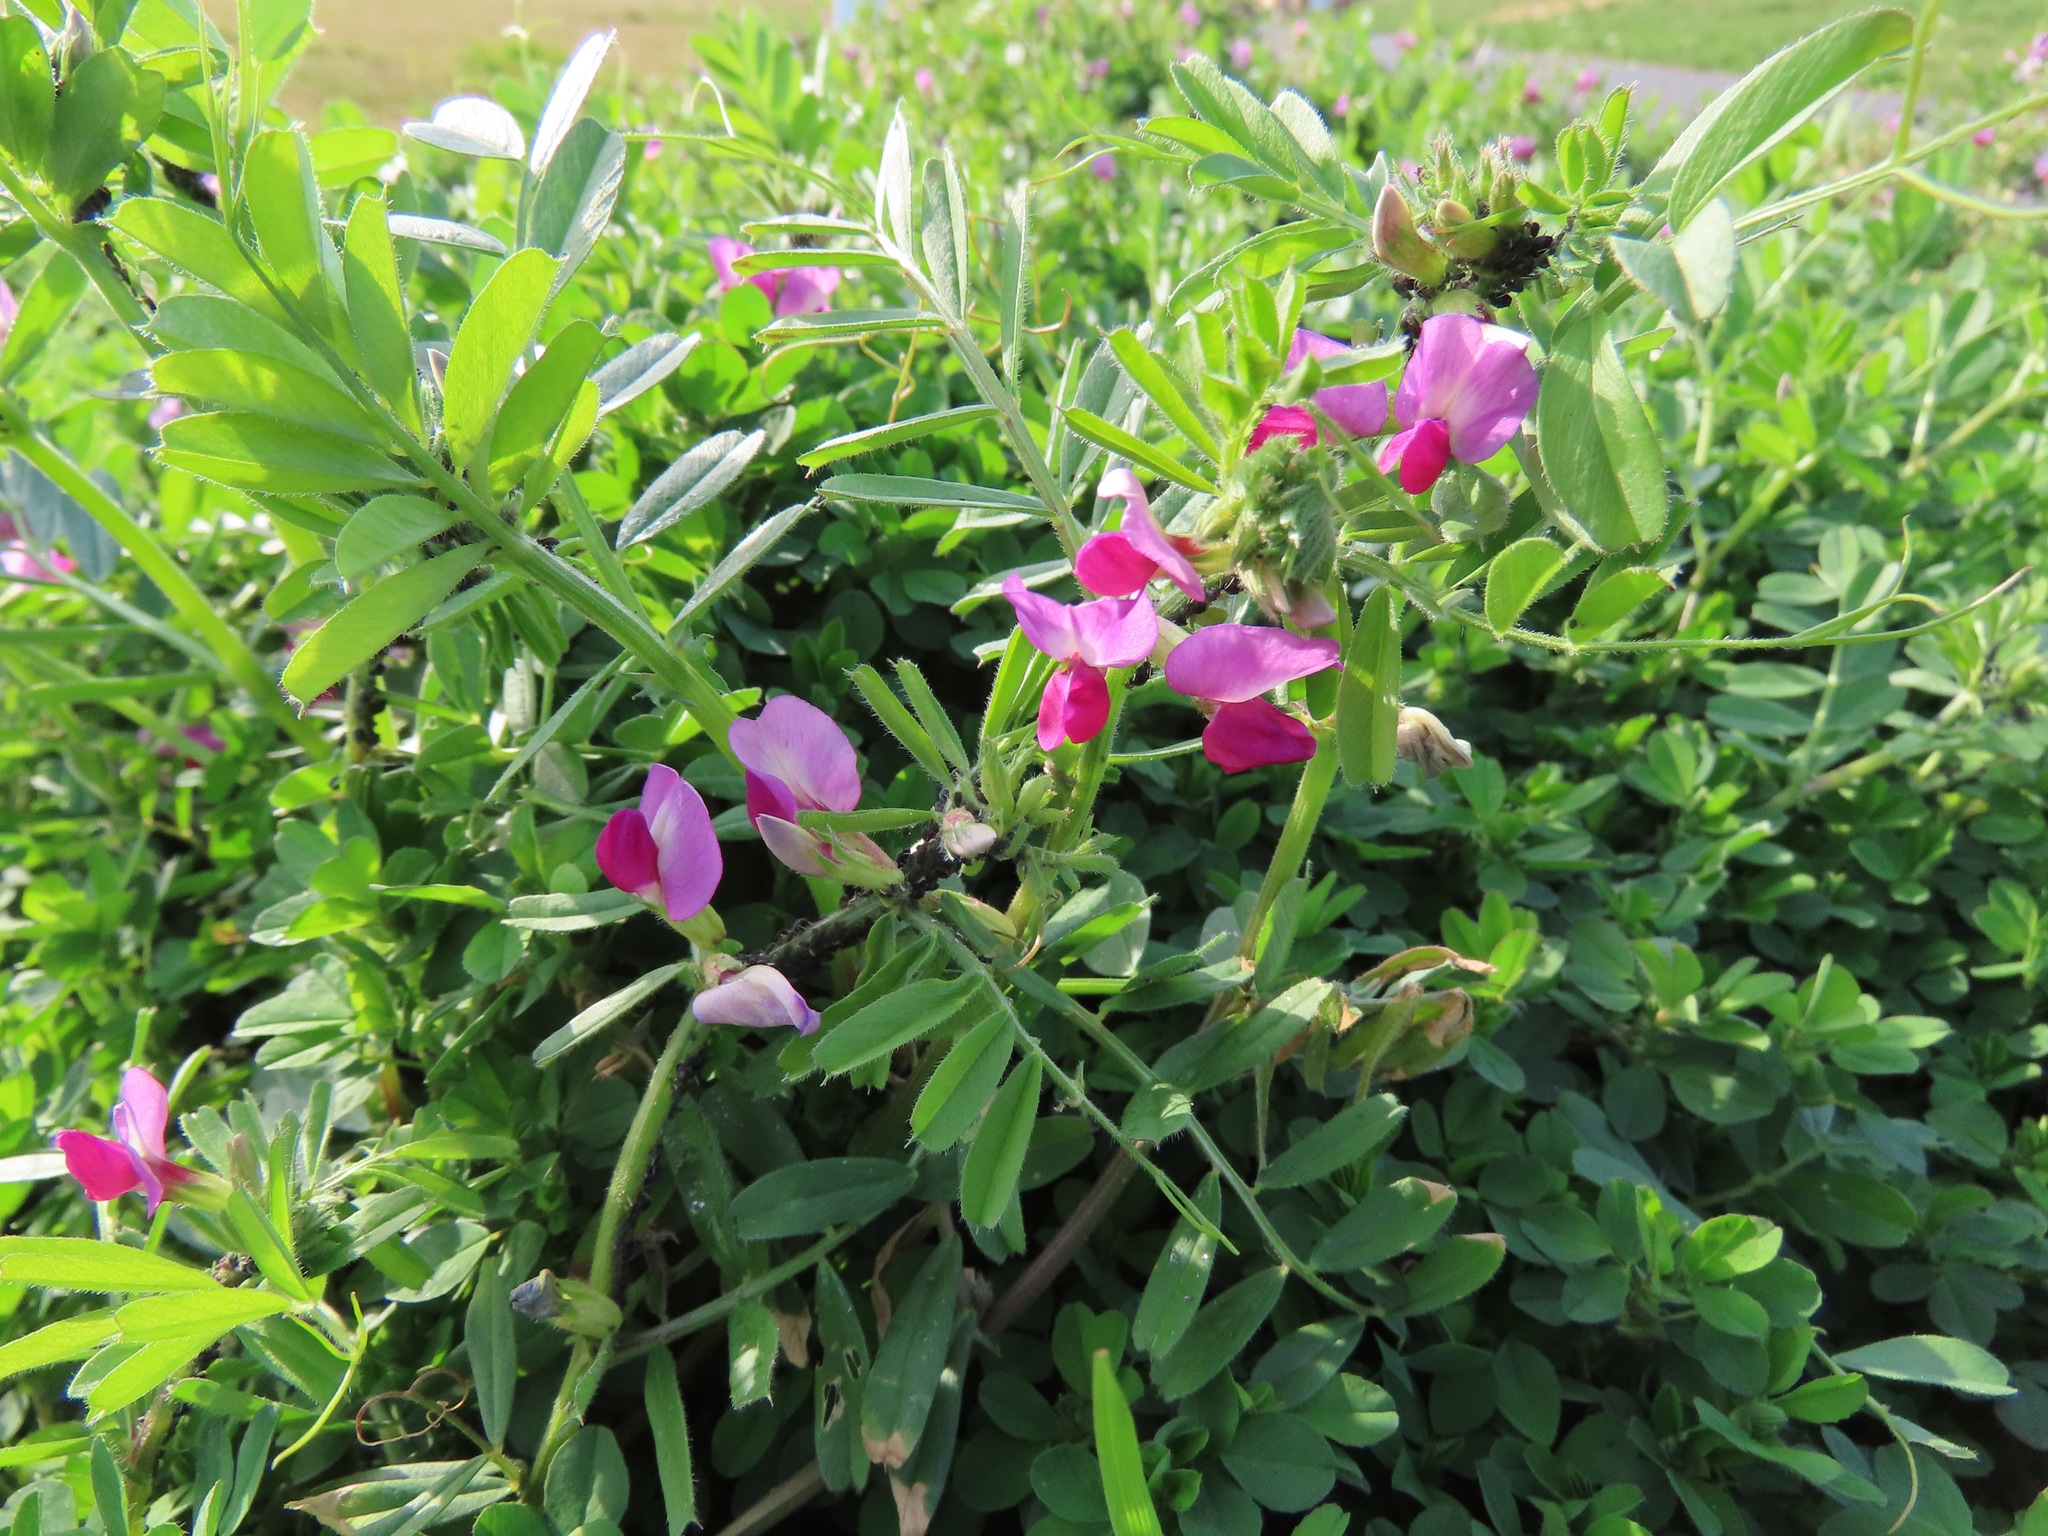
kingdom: Plantae
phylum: Tracheophyta
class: Magnoliopsida
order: Fabales
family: Fabaceae
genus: Vicia
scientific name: Vicia sativa
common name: Garden vetch
